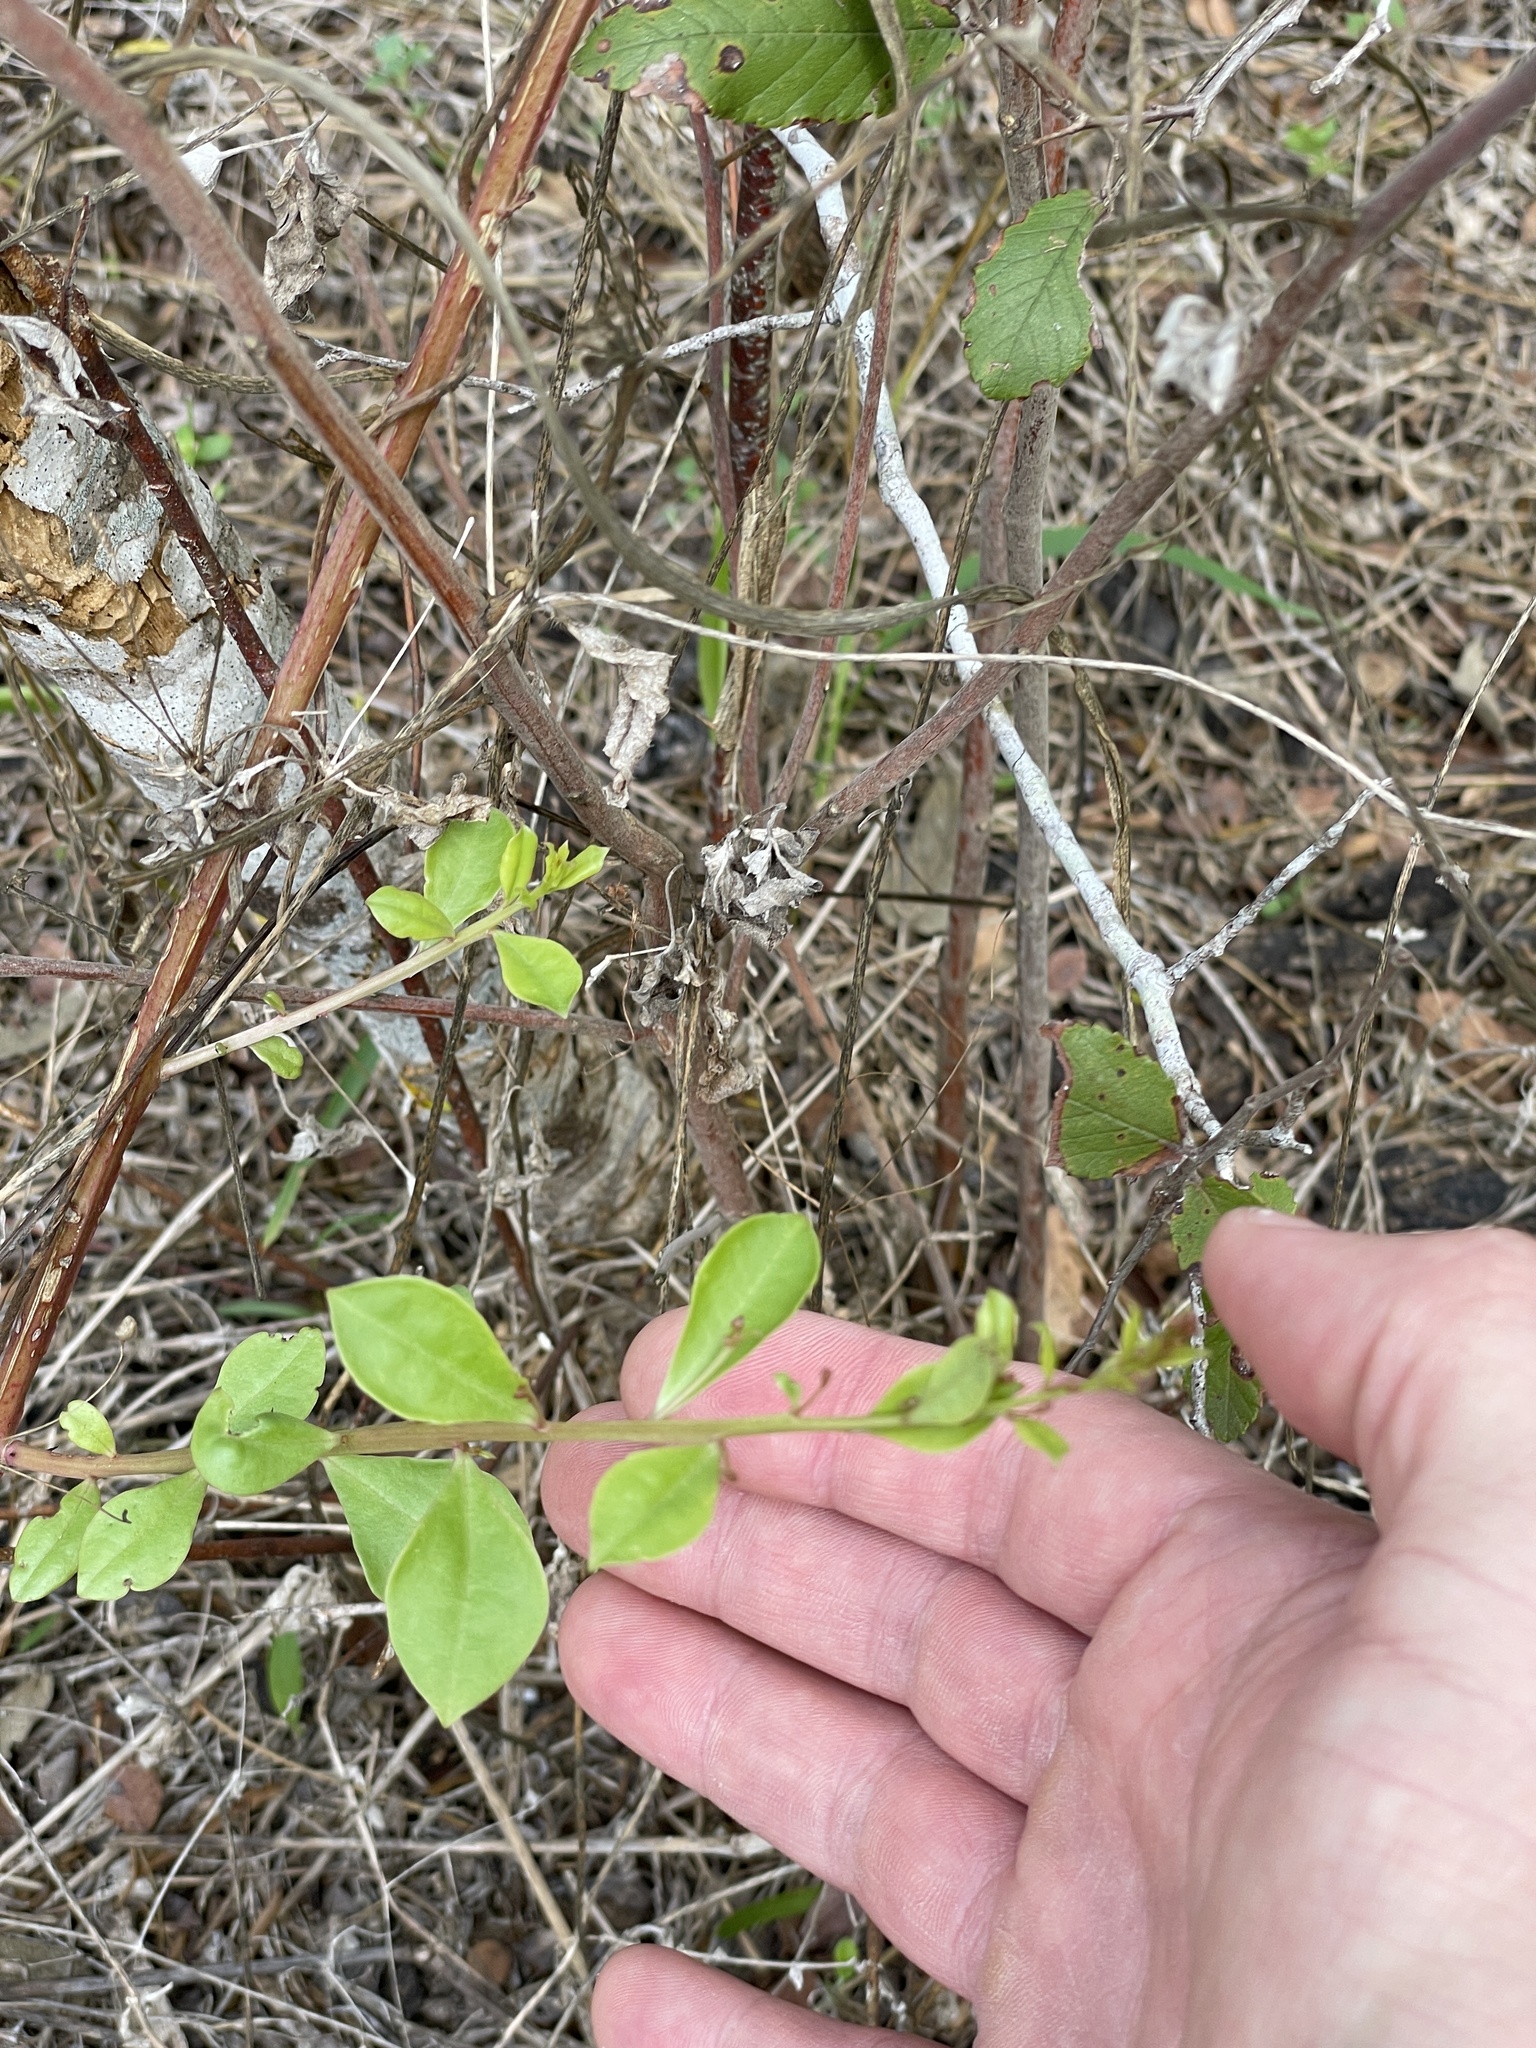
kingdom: Plantae
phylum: Tracheophyta
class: Magnoliopsida
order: Caryophyllales
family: Talinaceae
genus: Talinum
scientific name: Talinum paniculatum
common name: Jewels of opar
